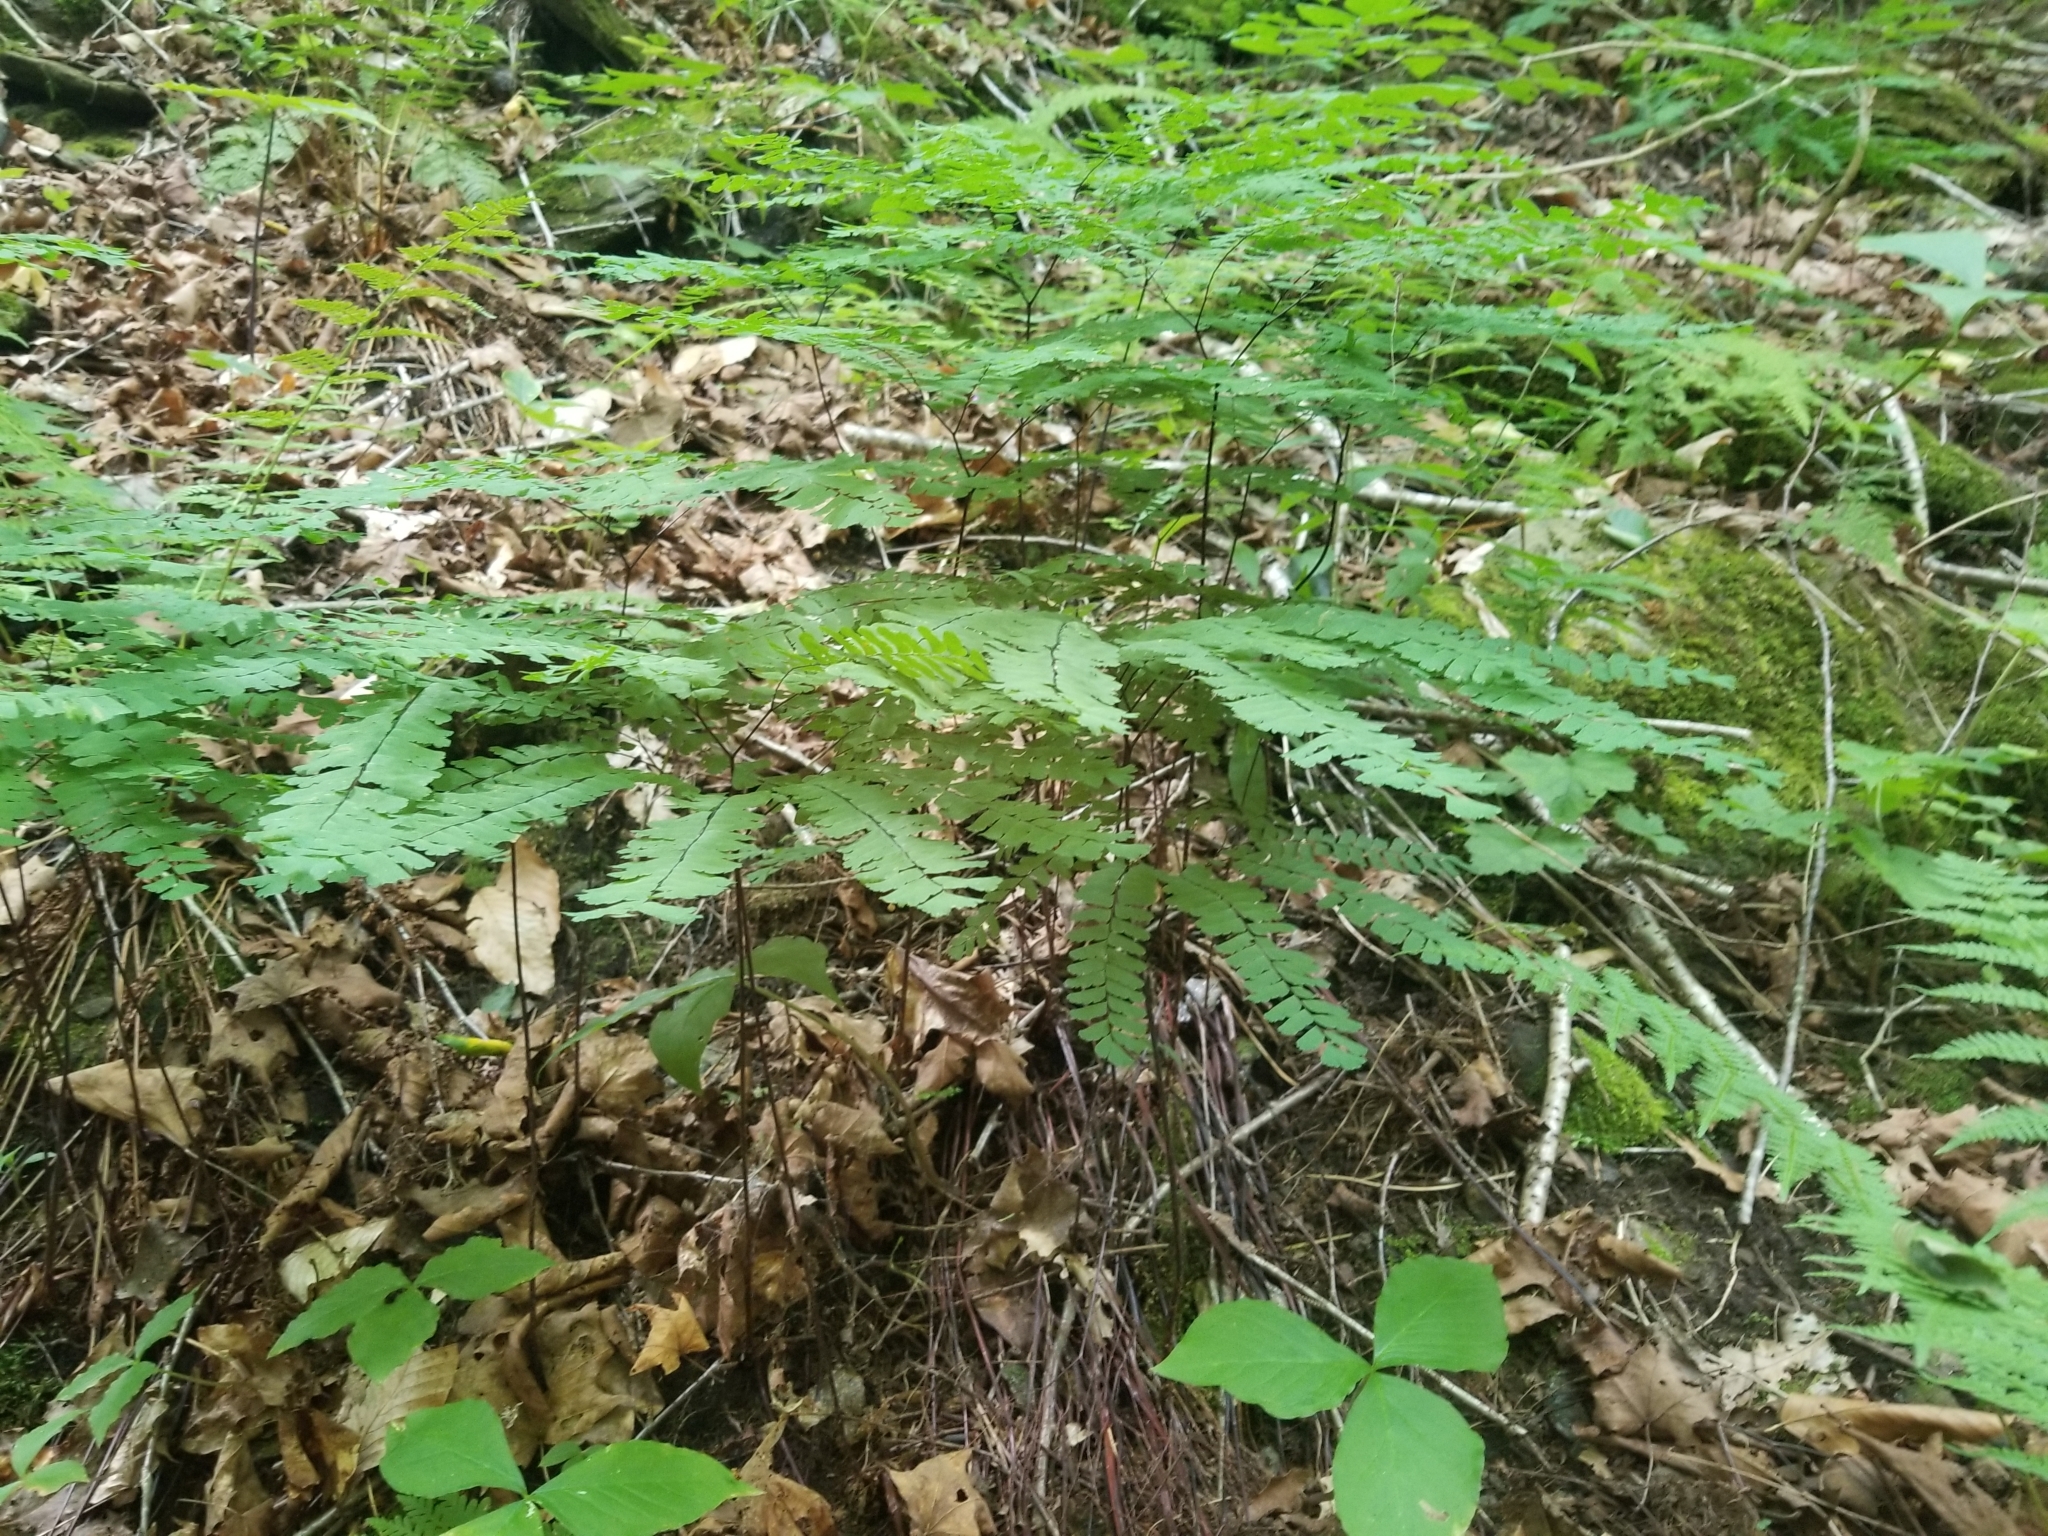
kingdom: Plantae
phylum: Tracheophyta
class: Polypodiopsida
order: Polypodiales
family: Pteridaceae
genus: Adiantum
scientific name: Adiantum pedatum
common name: Five-finger fern
